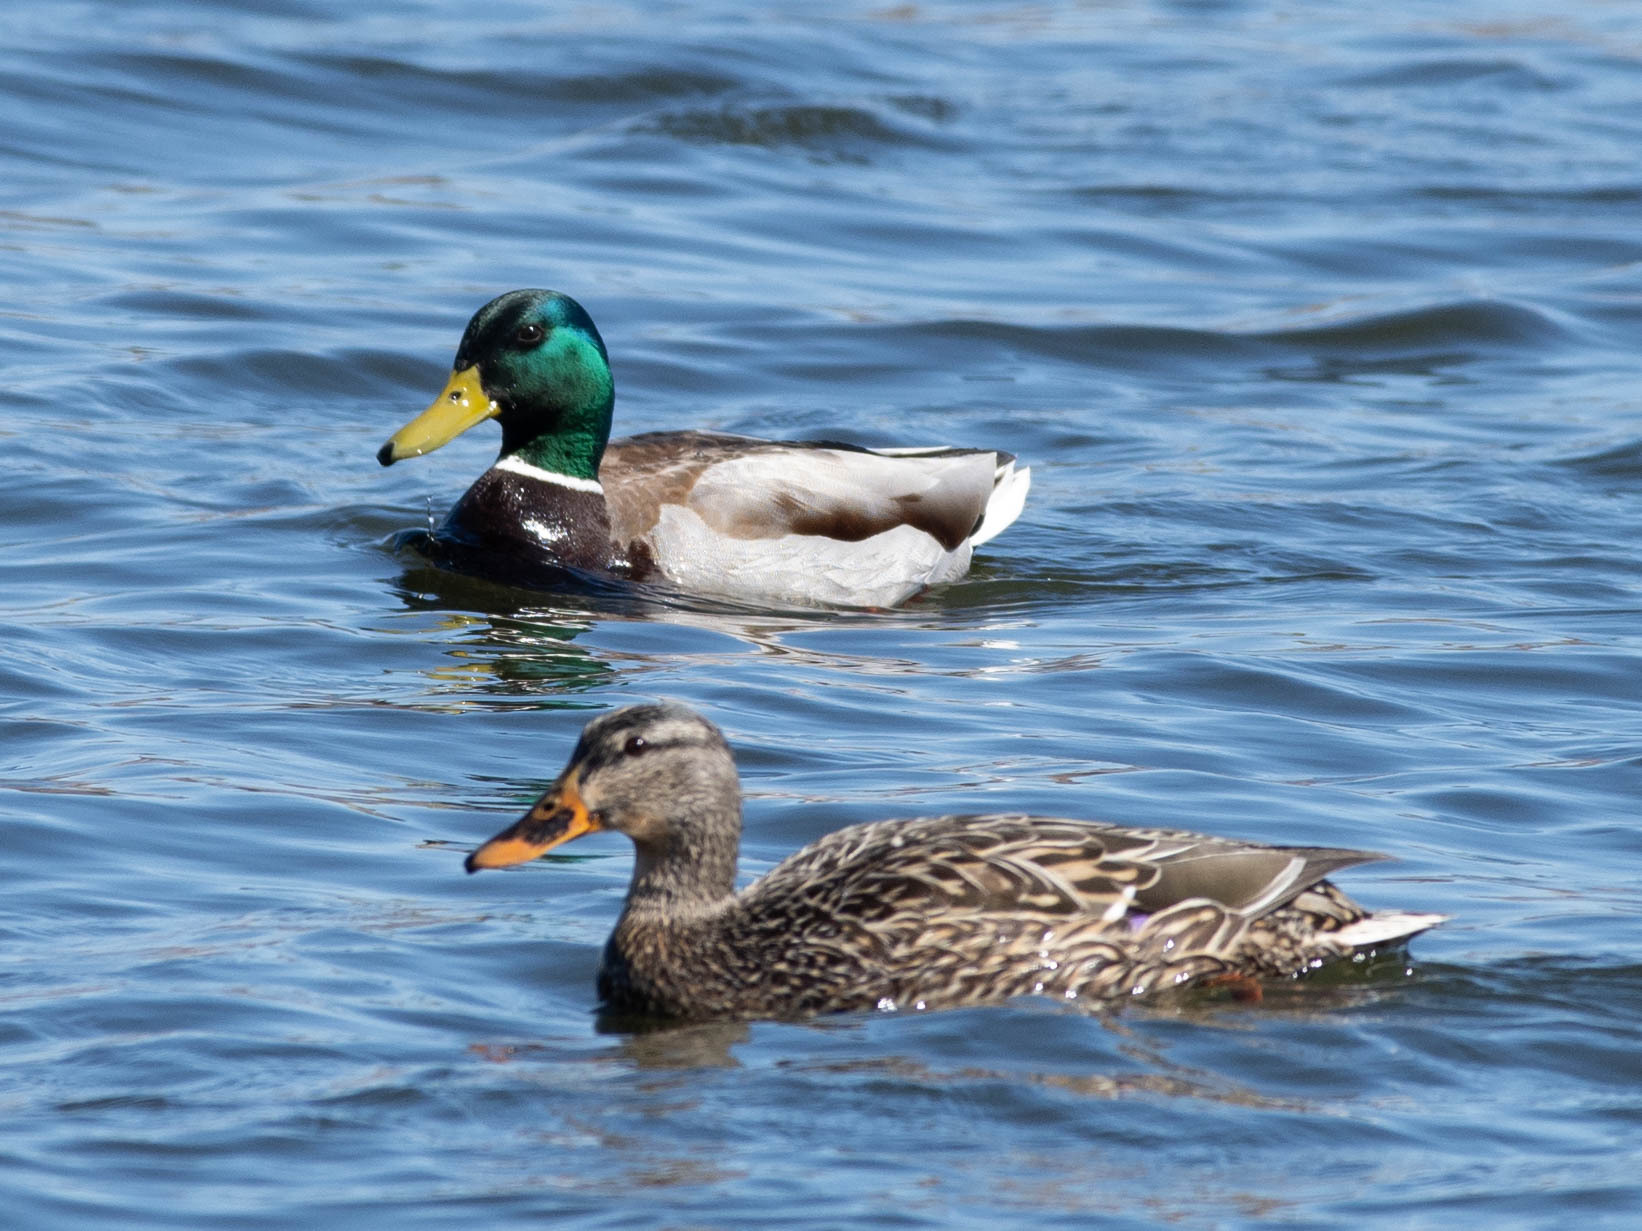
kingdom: Animalia
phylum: Chordata
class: Aves
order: Anseriformes
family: Anatidae
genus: Anas
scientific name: Anas platyrhynchos
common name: Mallard
